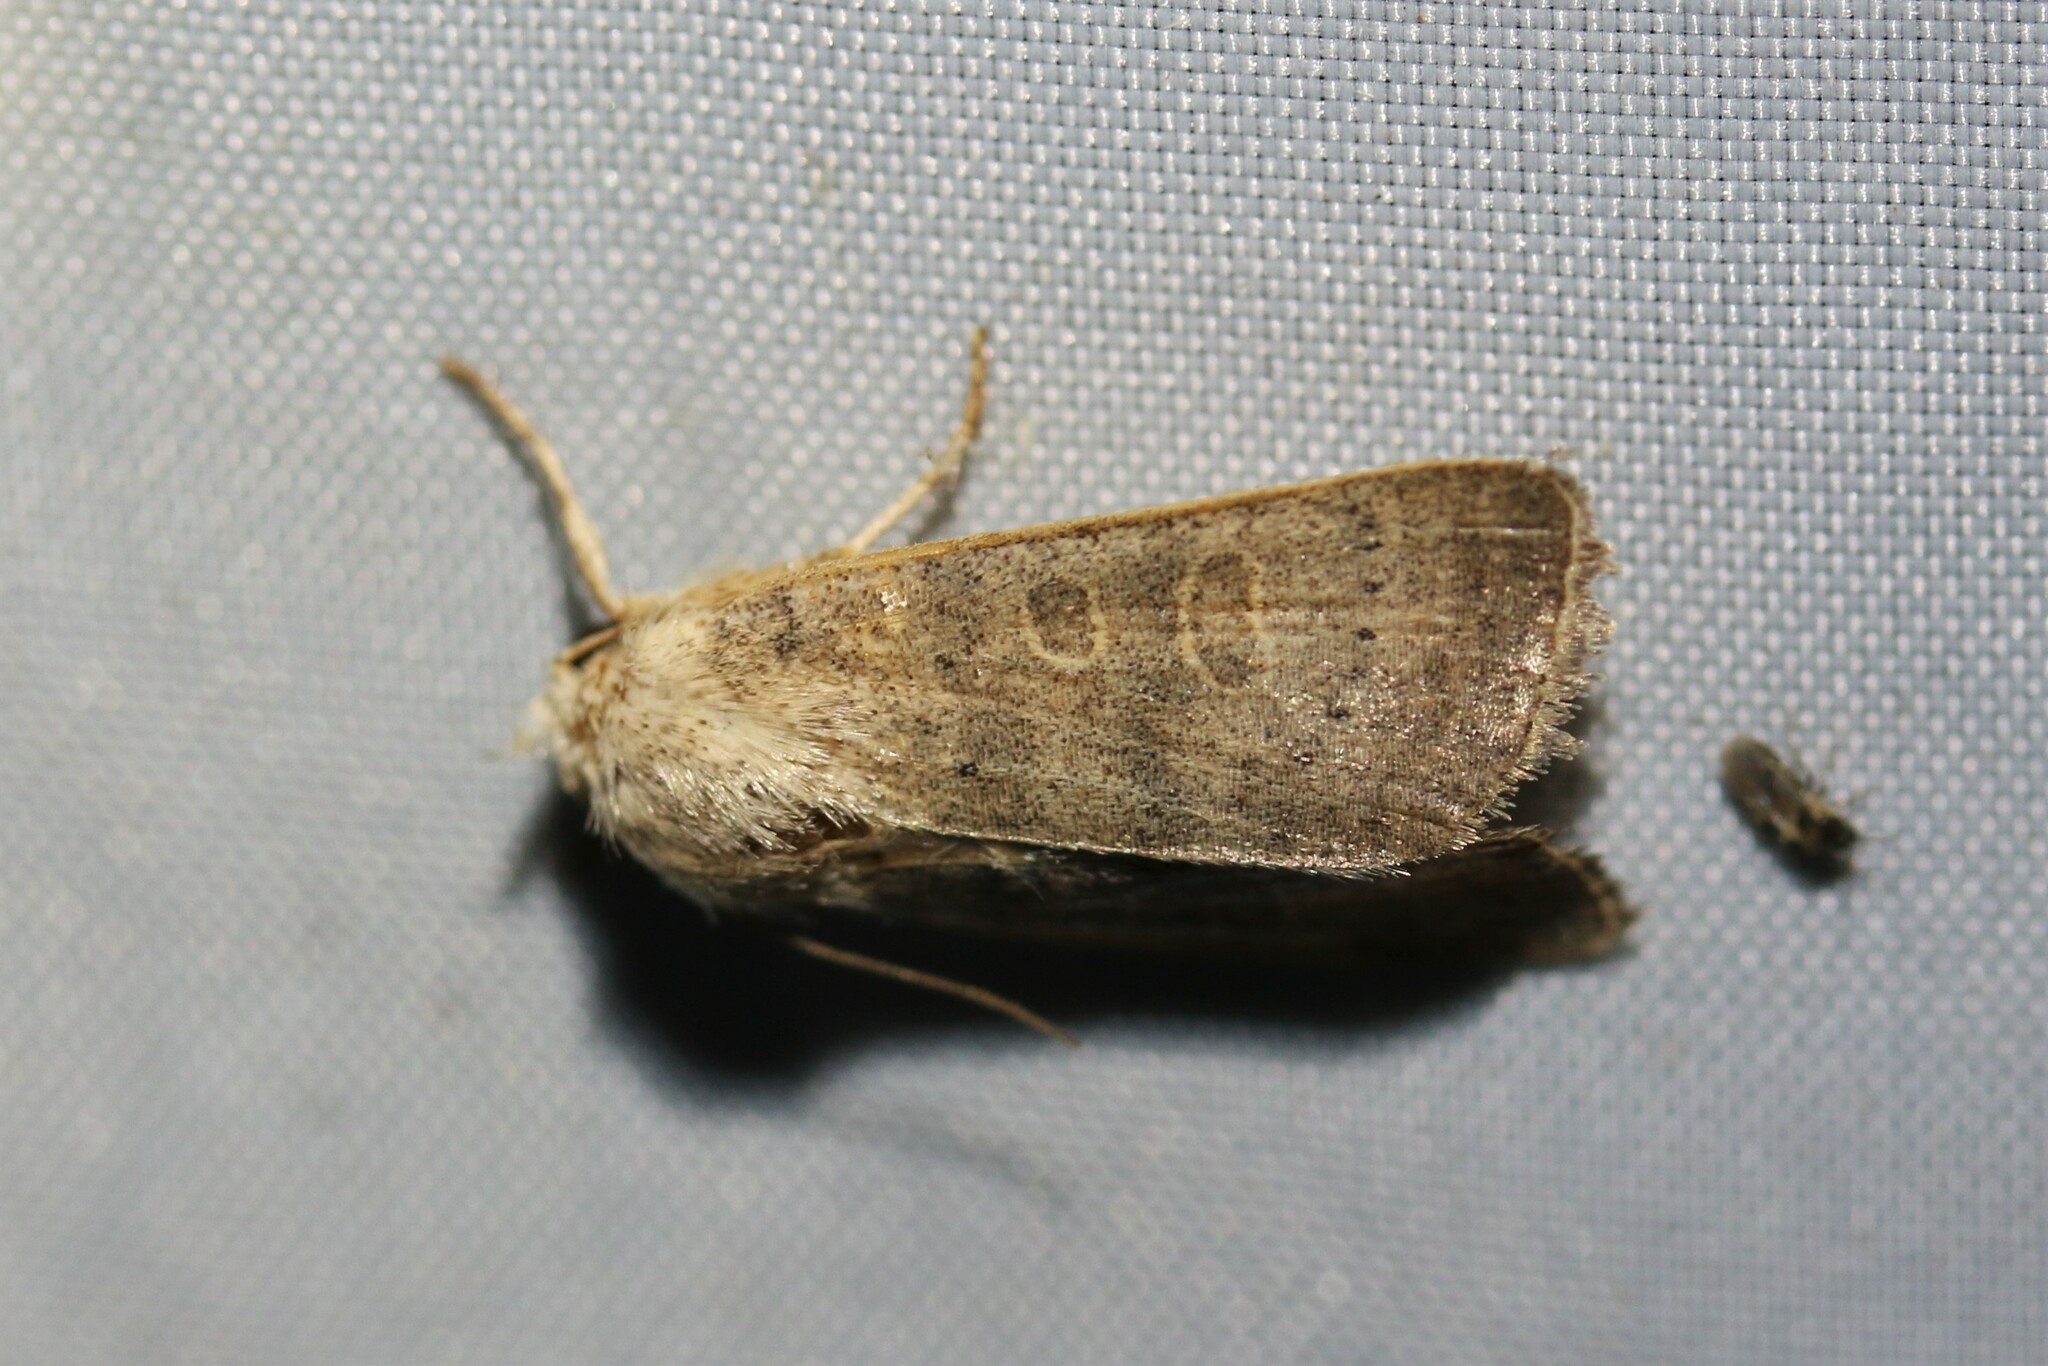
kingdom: Animalia
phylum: Arthropoda
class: Insecta
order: Lepidoptera
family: Noctuidae
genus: Hoplodrina
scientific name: Hoplodrina ambigua
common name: Vine's rustic
